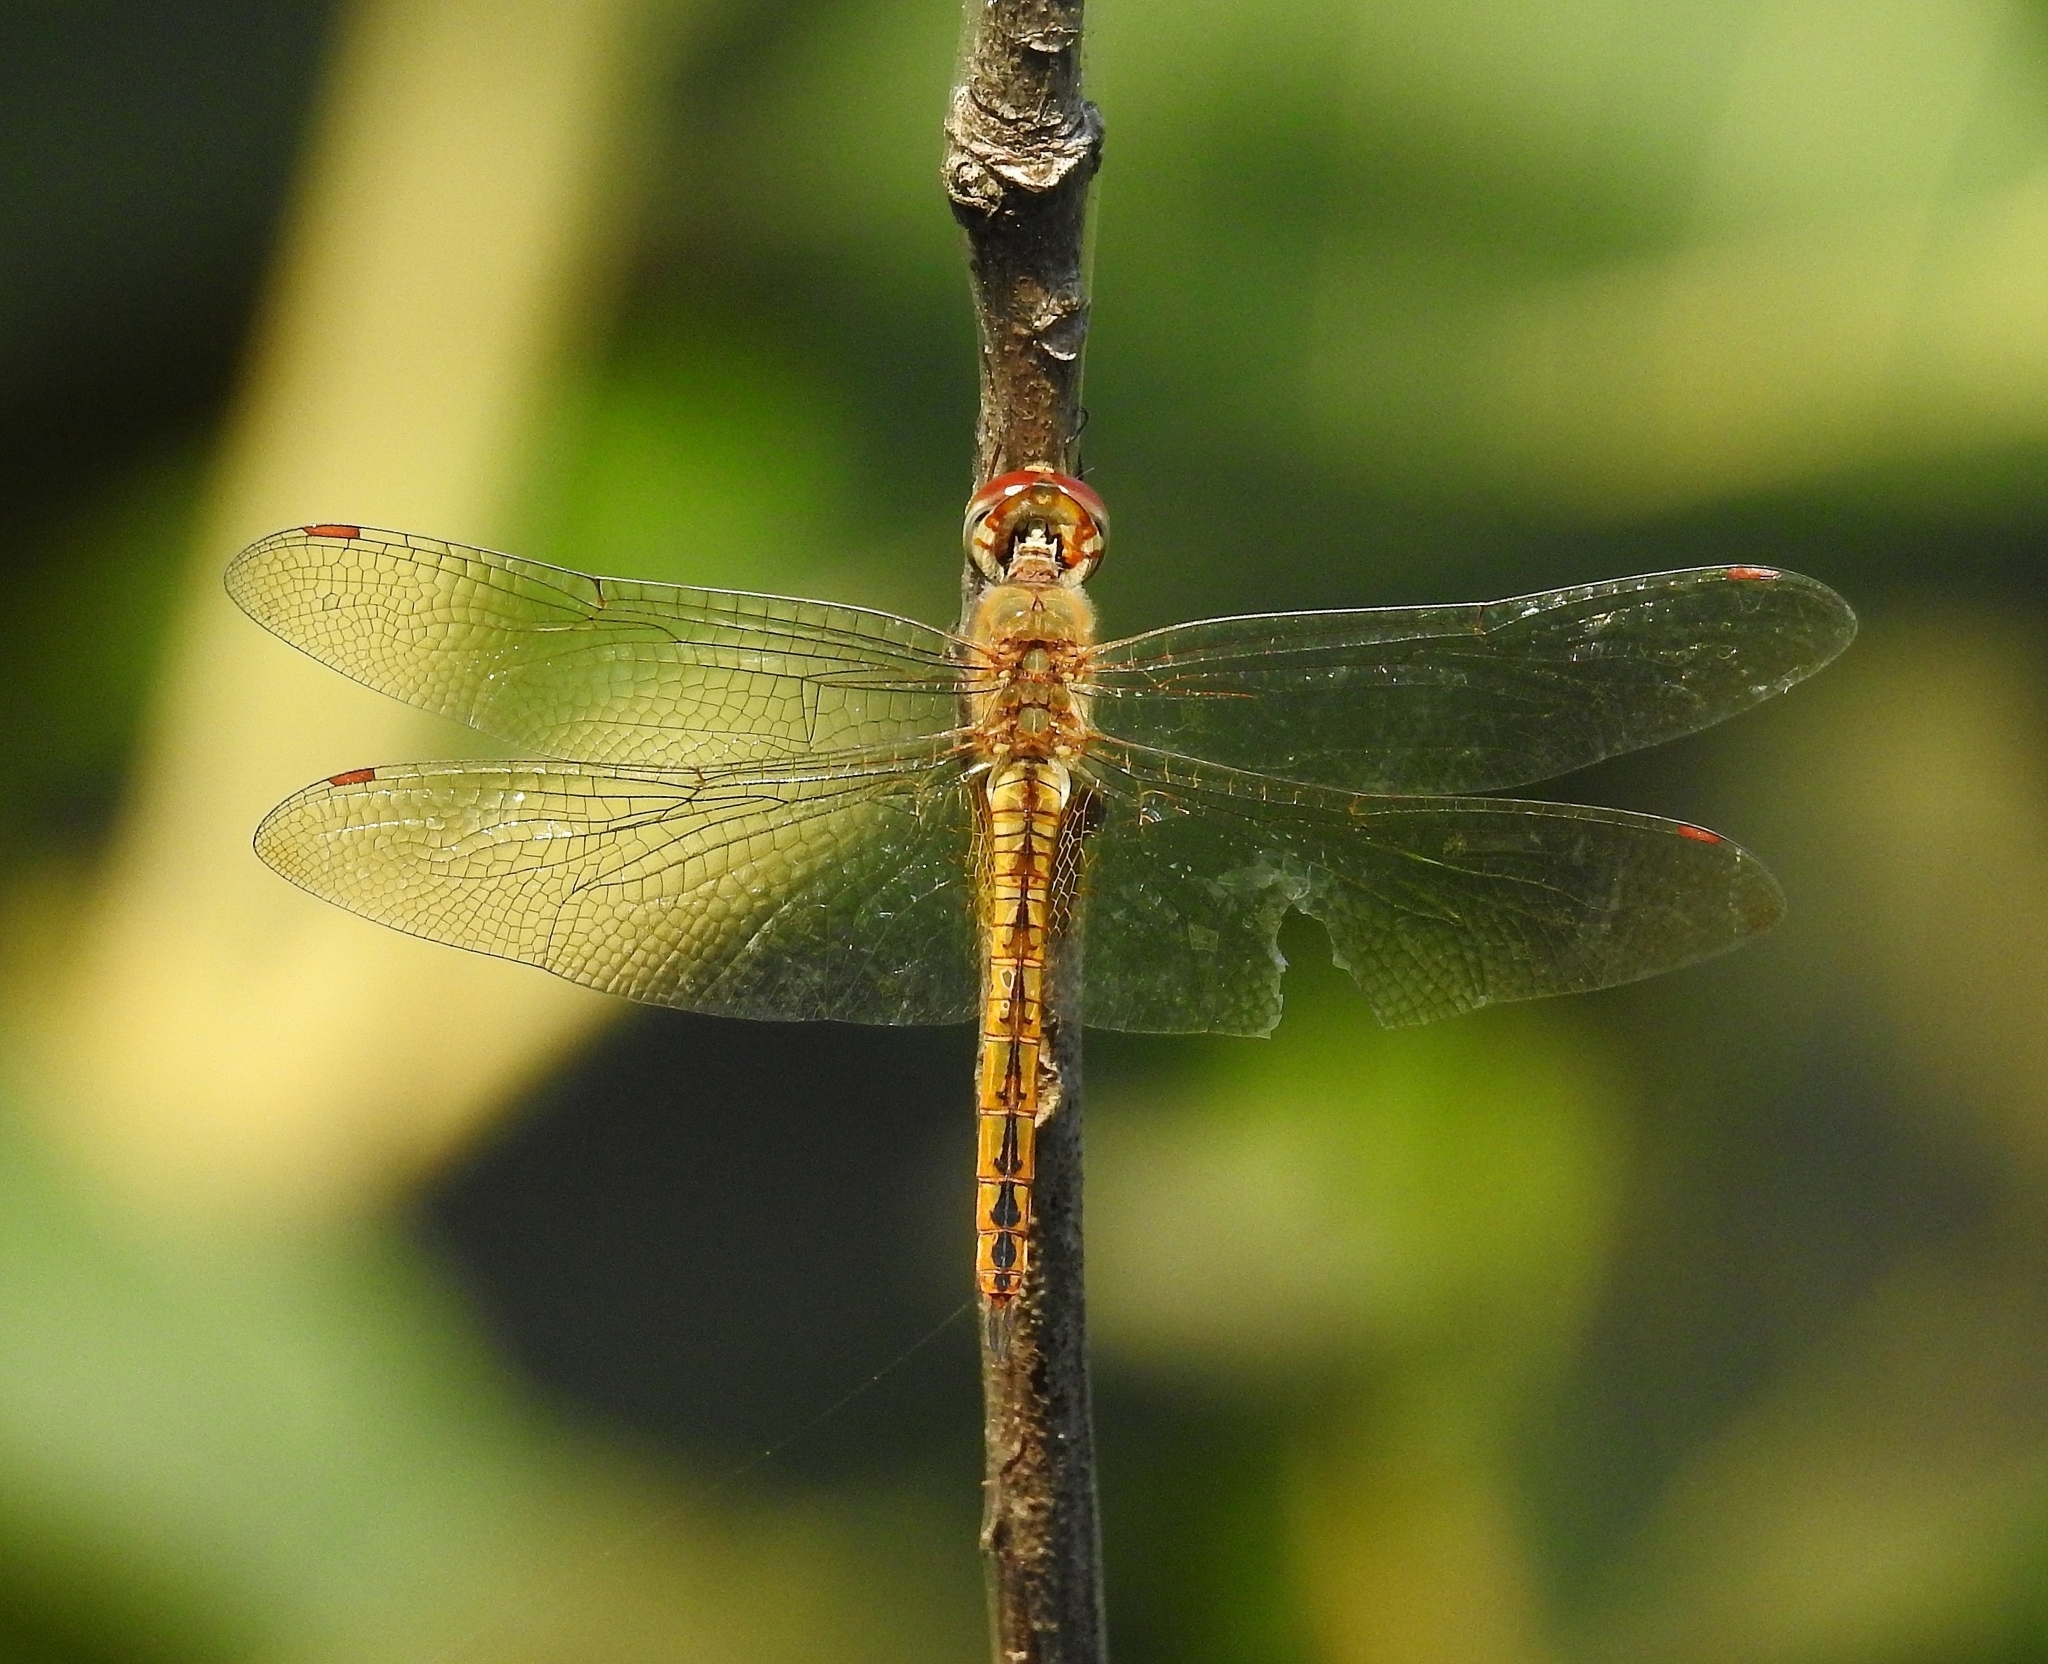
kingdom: Animalia
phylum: Arthropoda
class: Insecta
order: Odonata
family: Libellulidae
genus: Pantala
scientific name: Pantala flavescens
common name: Wandering glider
